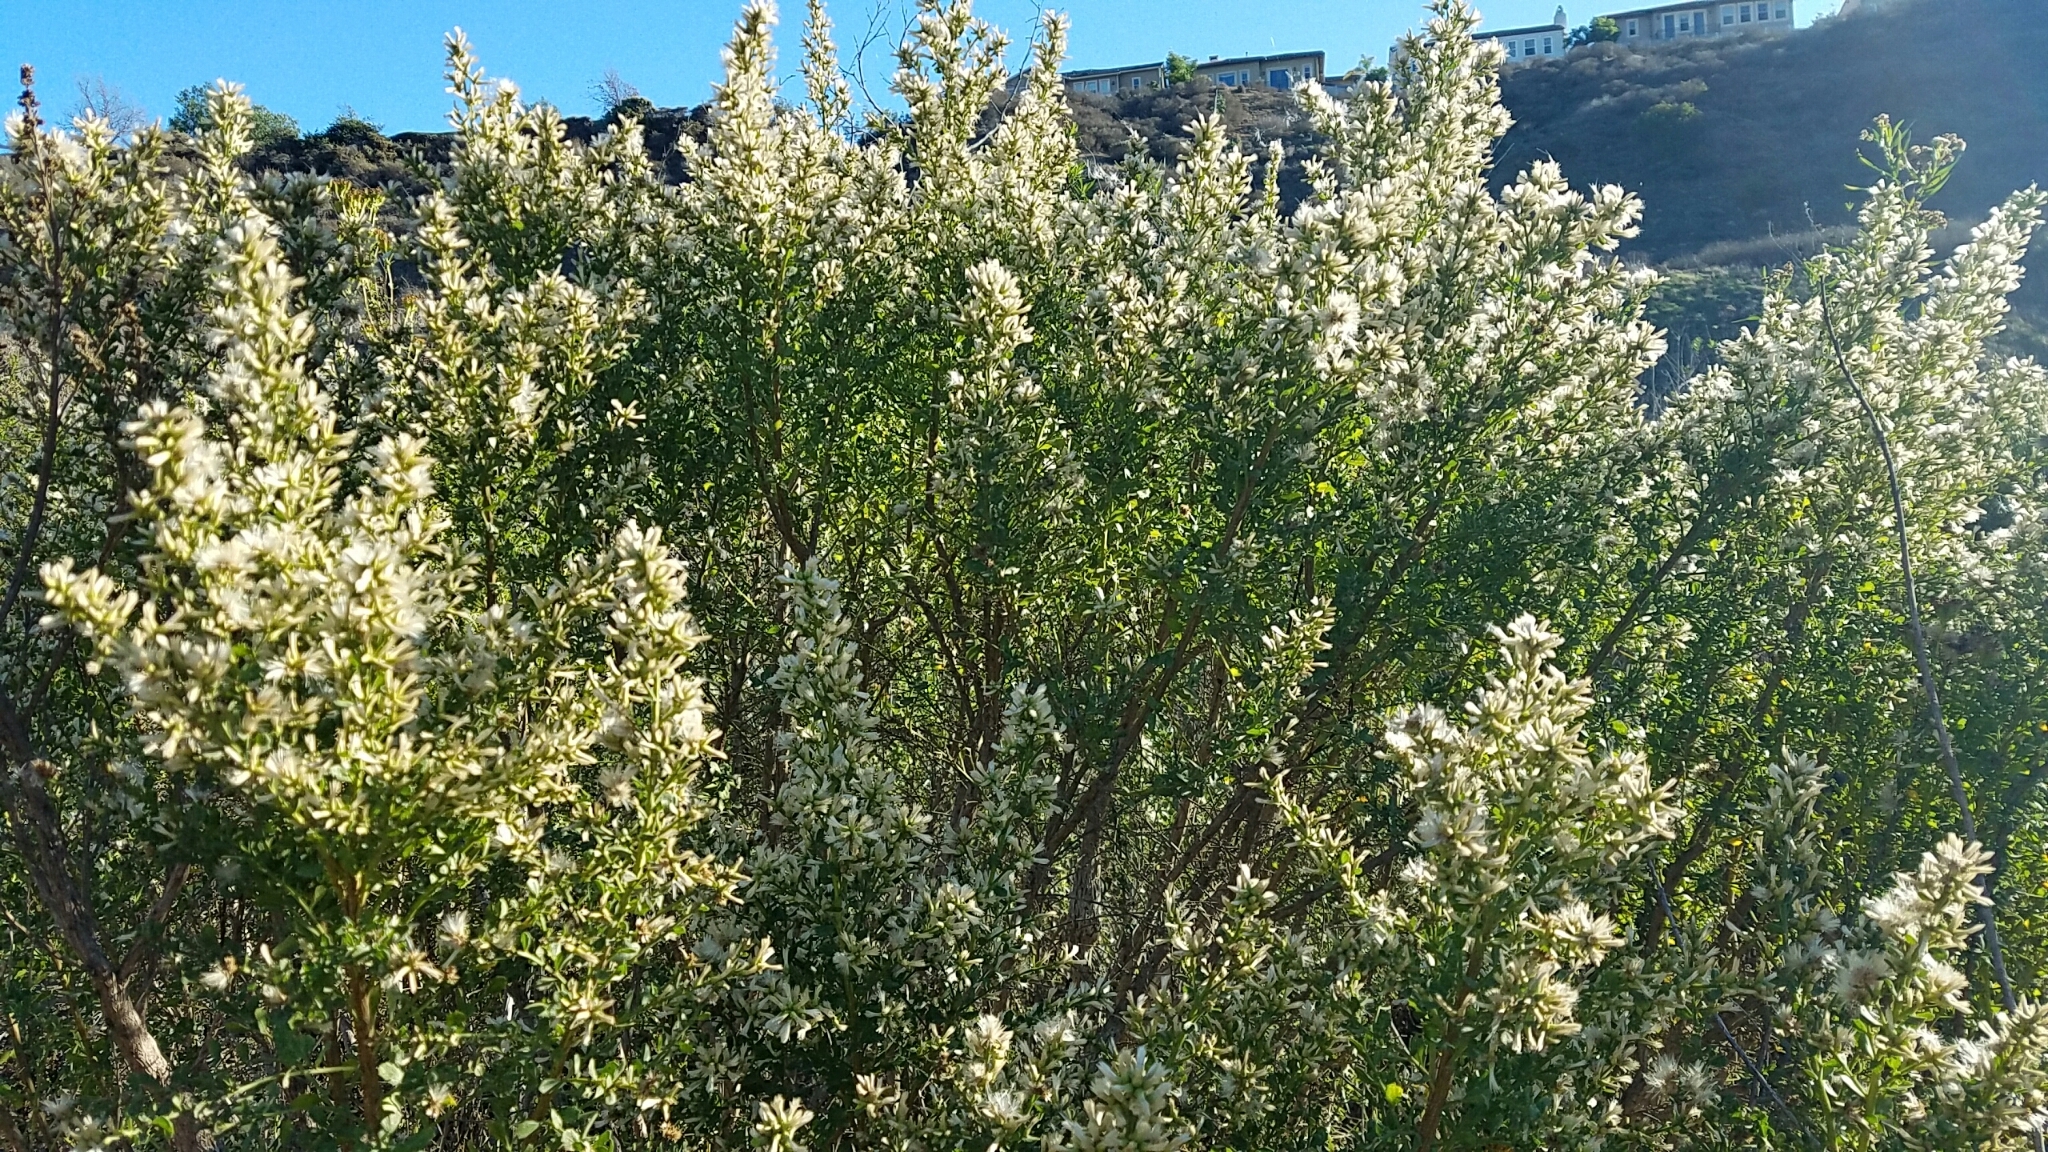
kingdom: Plantae
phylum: Tracheophyta
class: Magnoliopsida
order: Asterales
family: Asteraceae
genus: Baccharis
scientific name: Baccharis pilularis
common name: Coyotebrush
